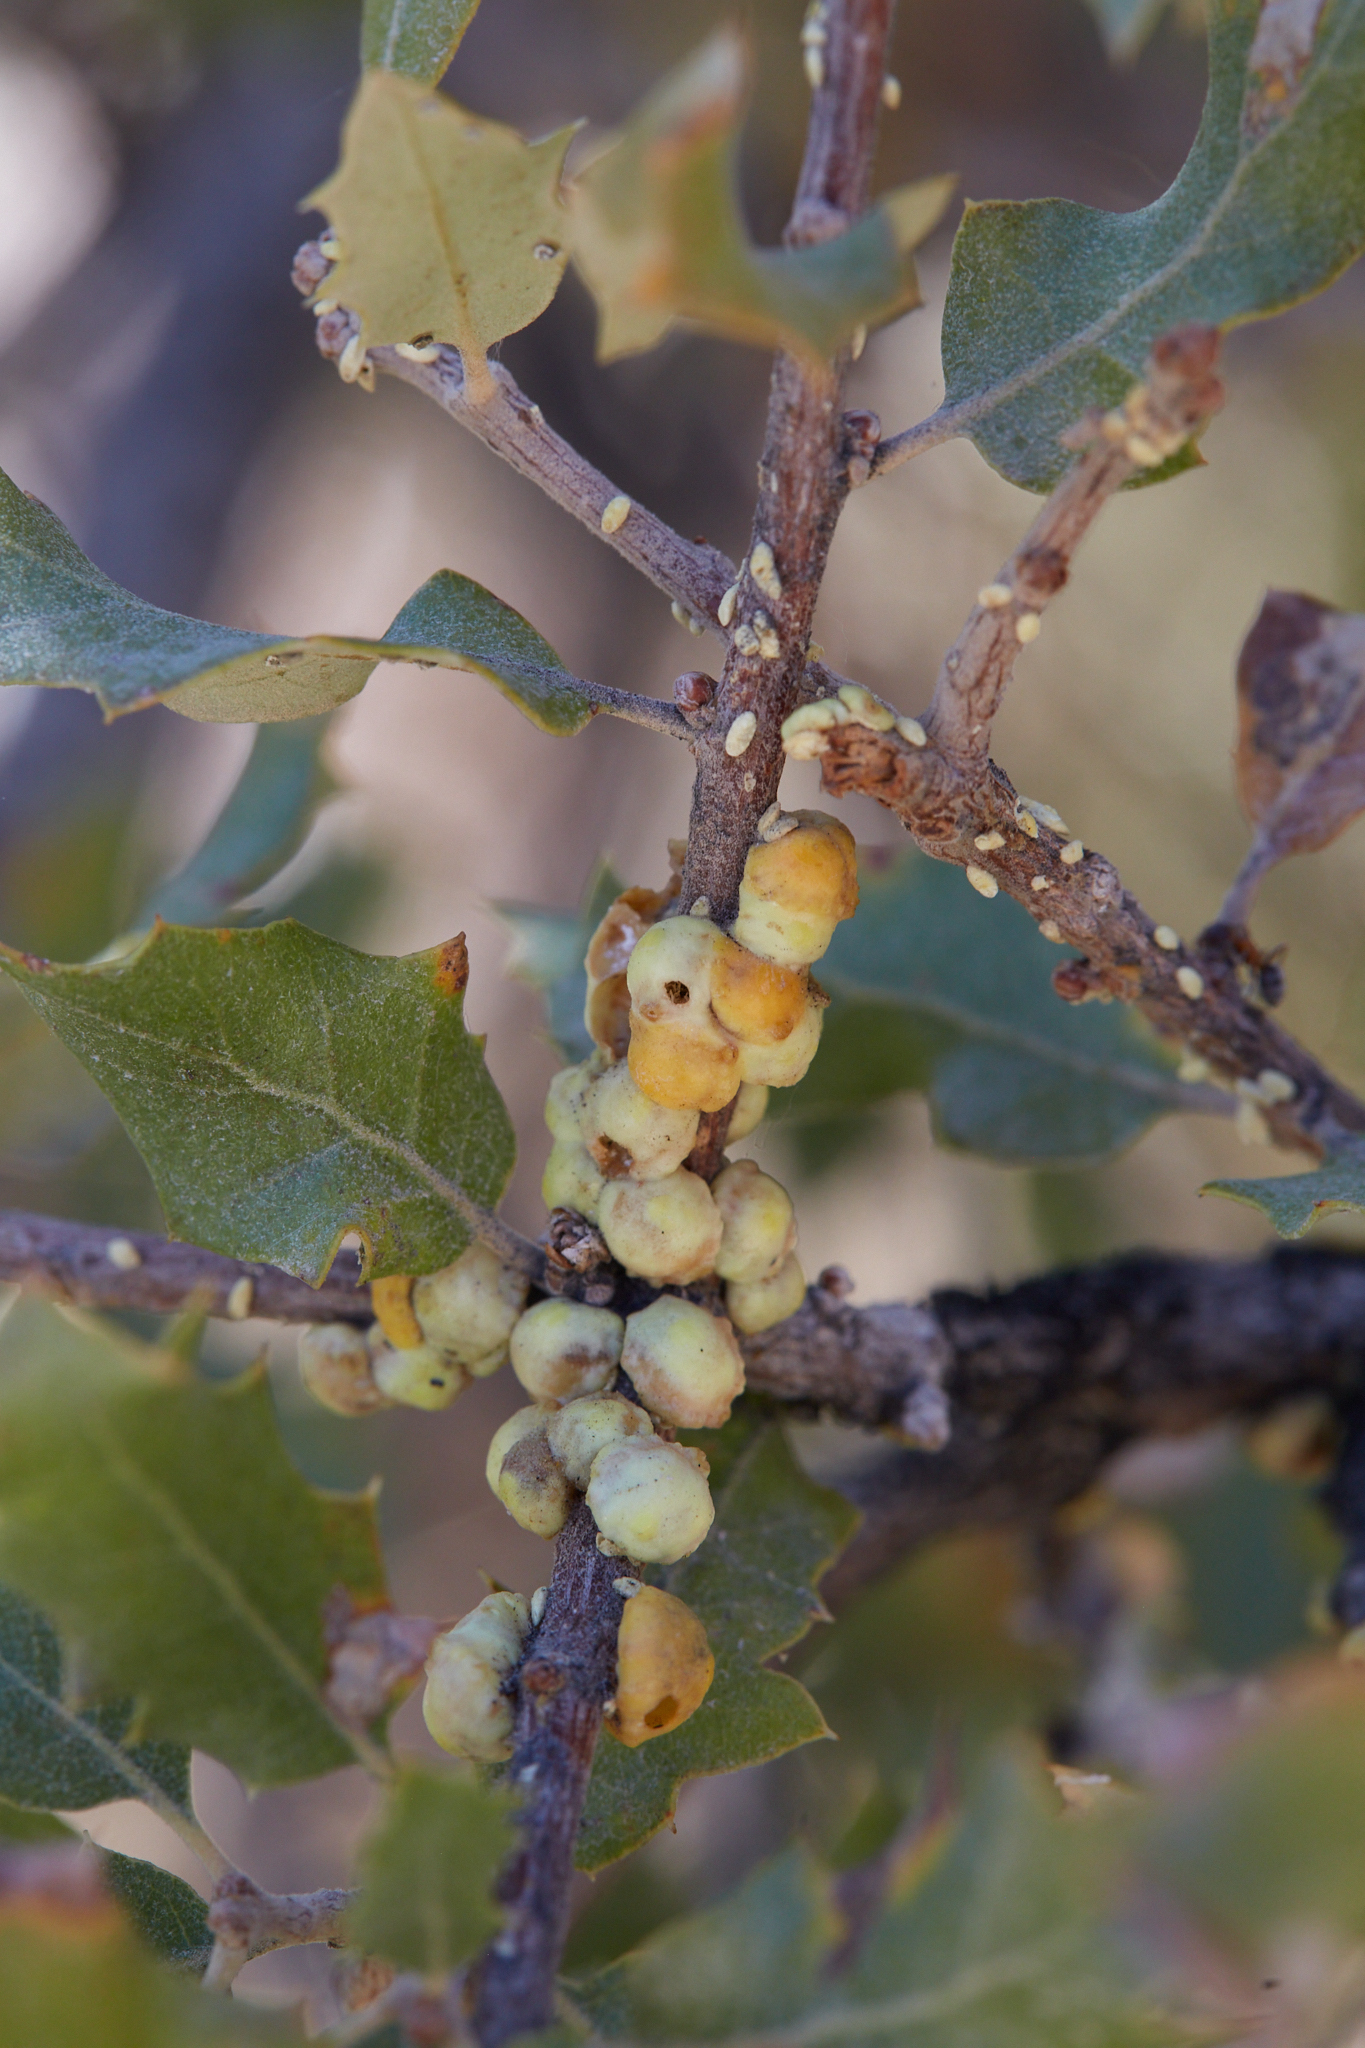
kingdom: Animalia
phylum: Arthropoda
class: Insecta
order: Hemiptera
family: Cerococcidae
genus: Cerococcus
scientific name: Cerococcus quercus
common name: Oak cerococcus
